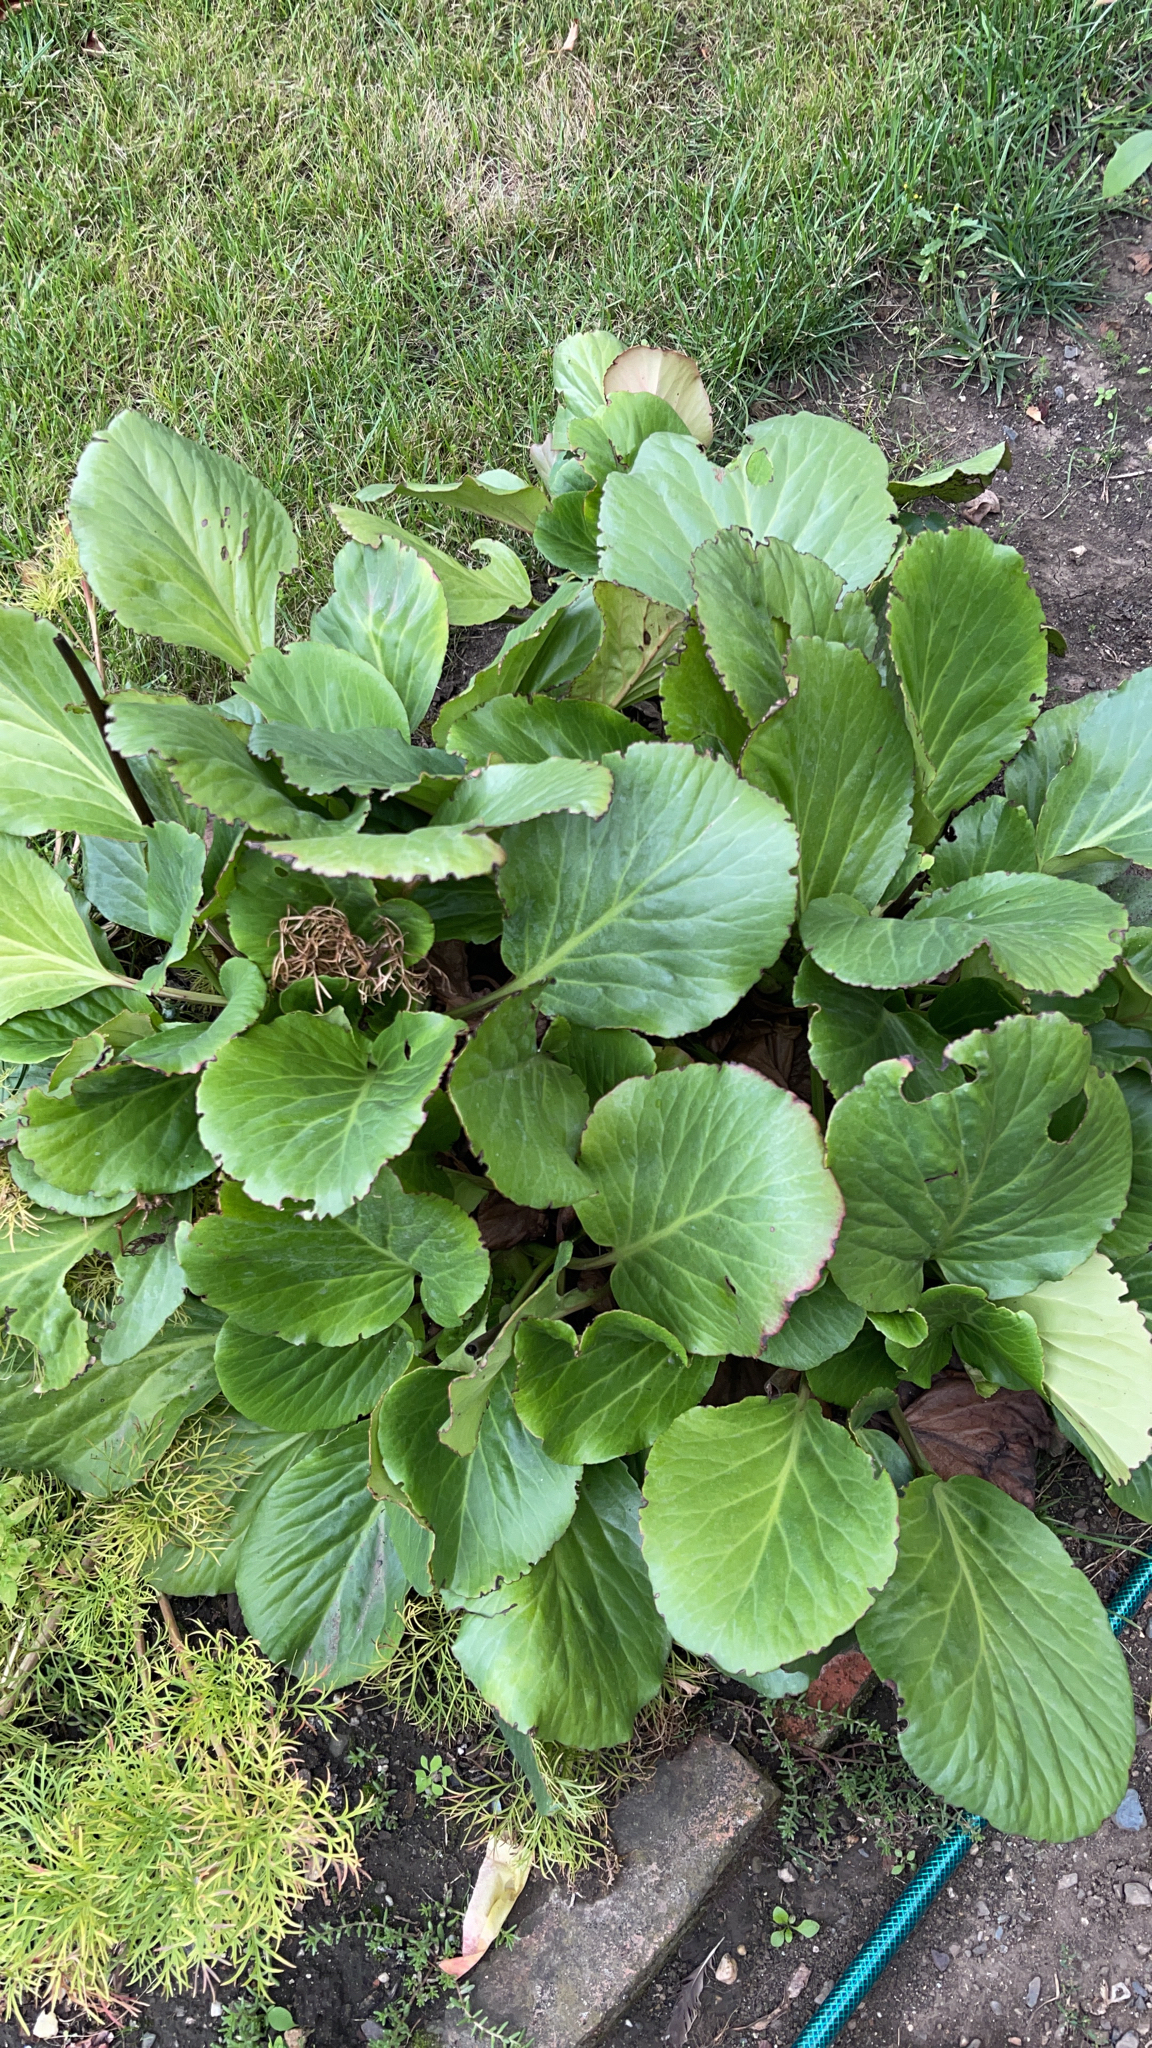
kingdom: Plantae
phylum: Tracheophyta
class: Magnoliopsida
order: Saxifragales
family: Saxifragaceae
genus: Bergenia
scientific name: Bergenia crassifolia
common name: Elephant-ears
